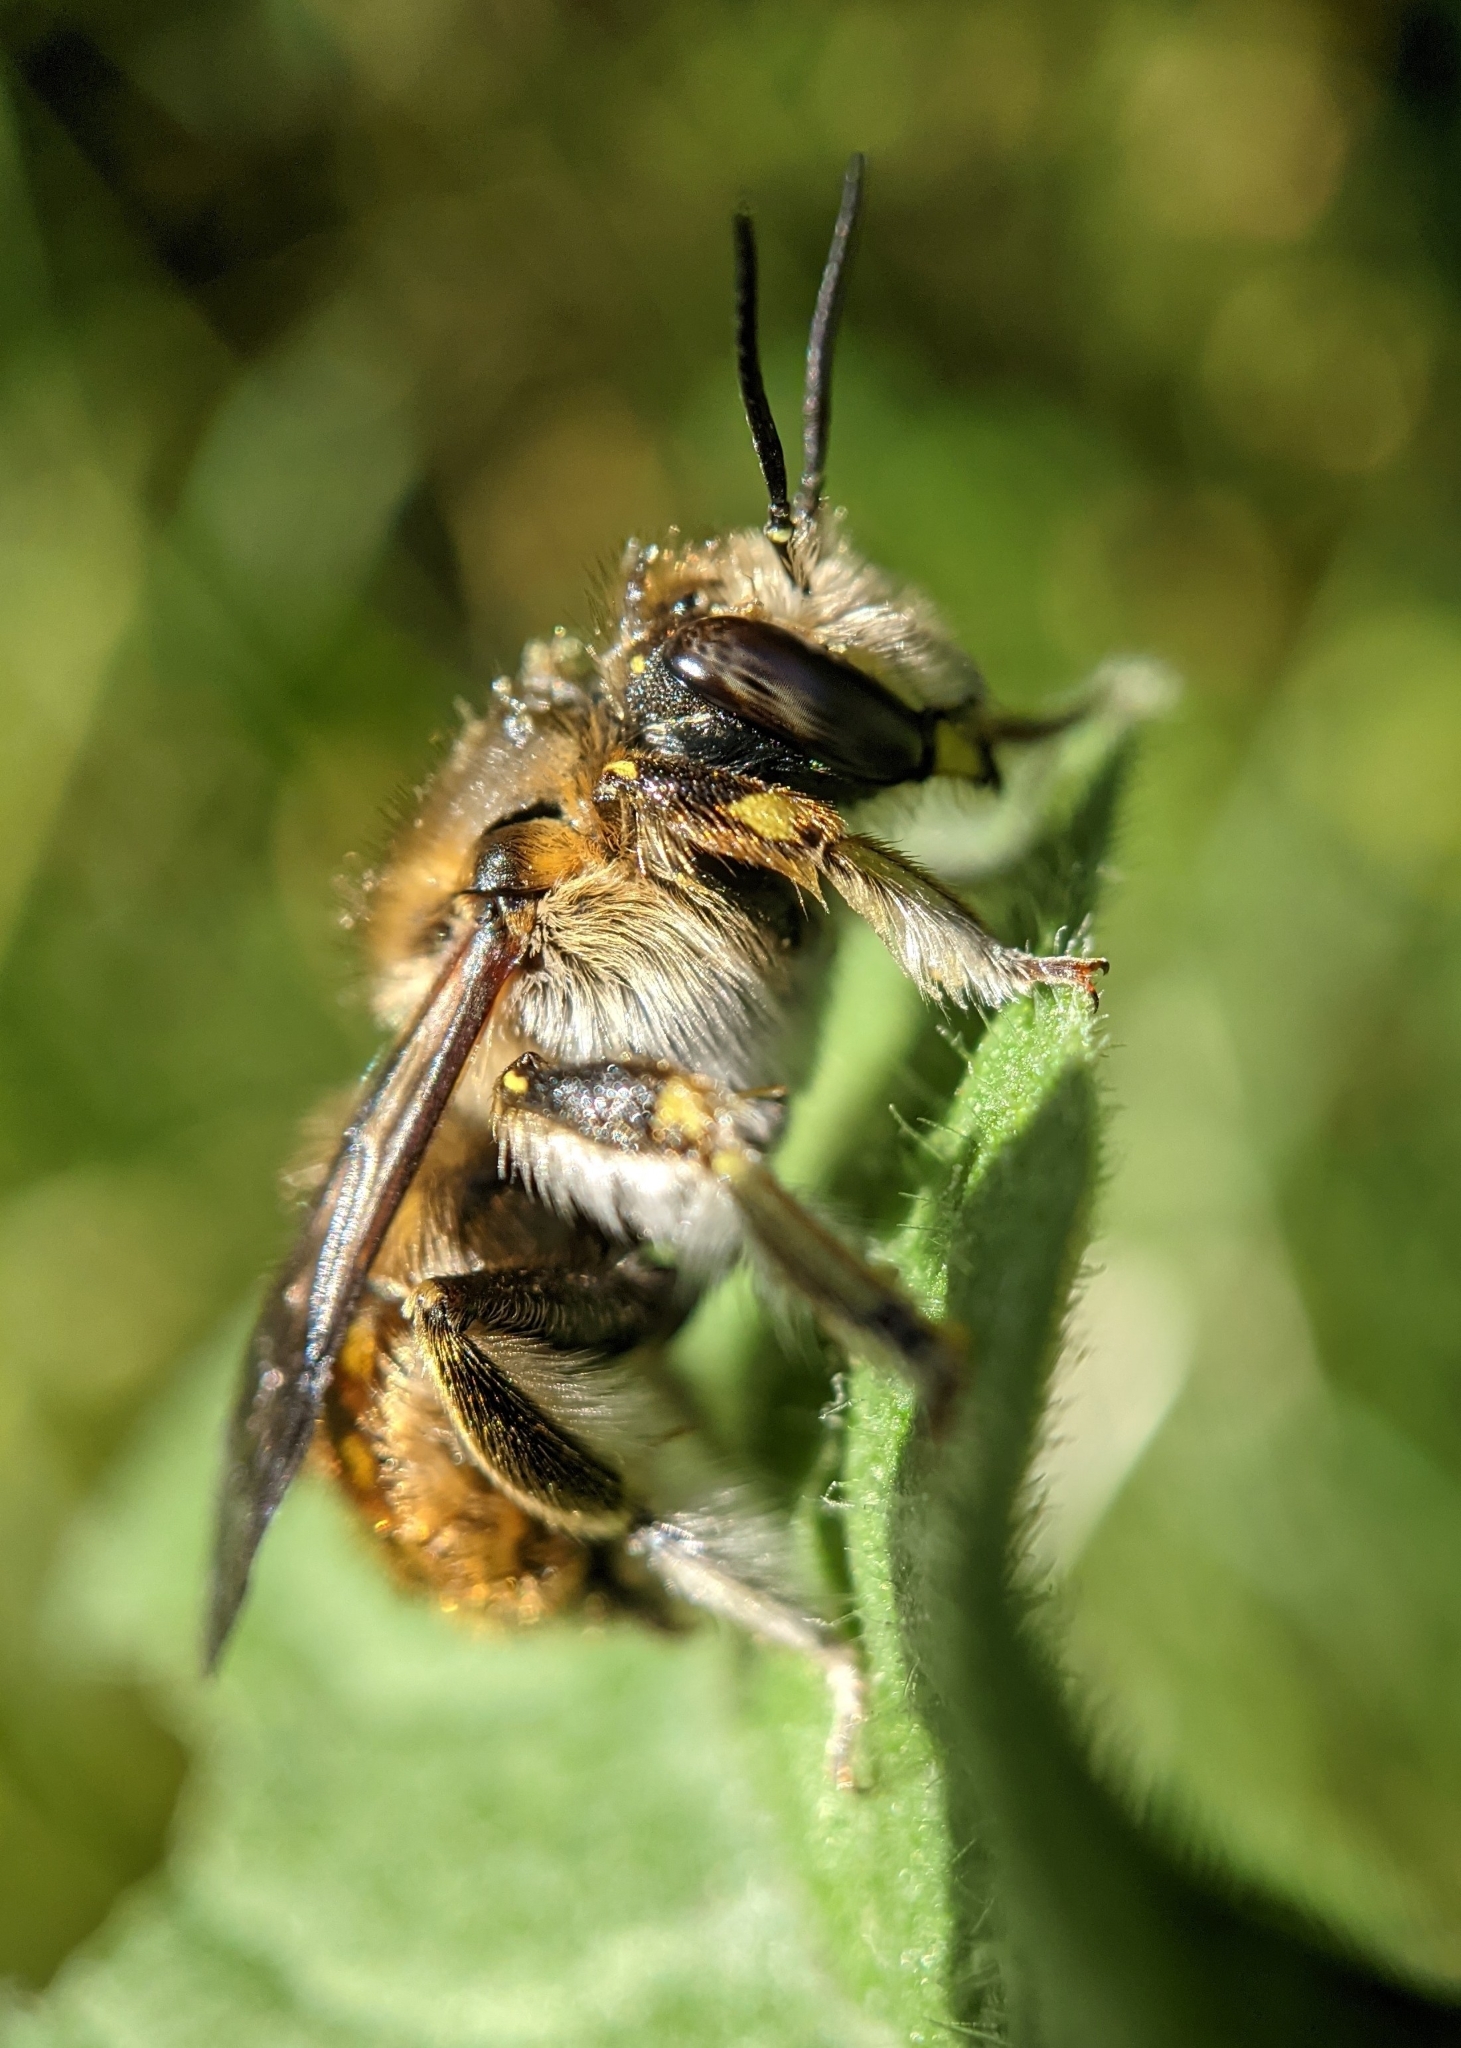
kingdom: Animalia
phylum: Arthropoda
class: Insecta
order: Hymenoptera
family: Megachilidae
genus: Anthidium
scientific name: Anthidium manicatum
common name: Wool carder bee
